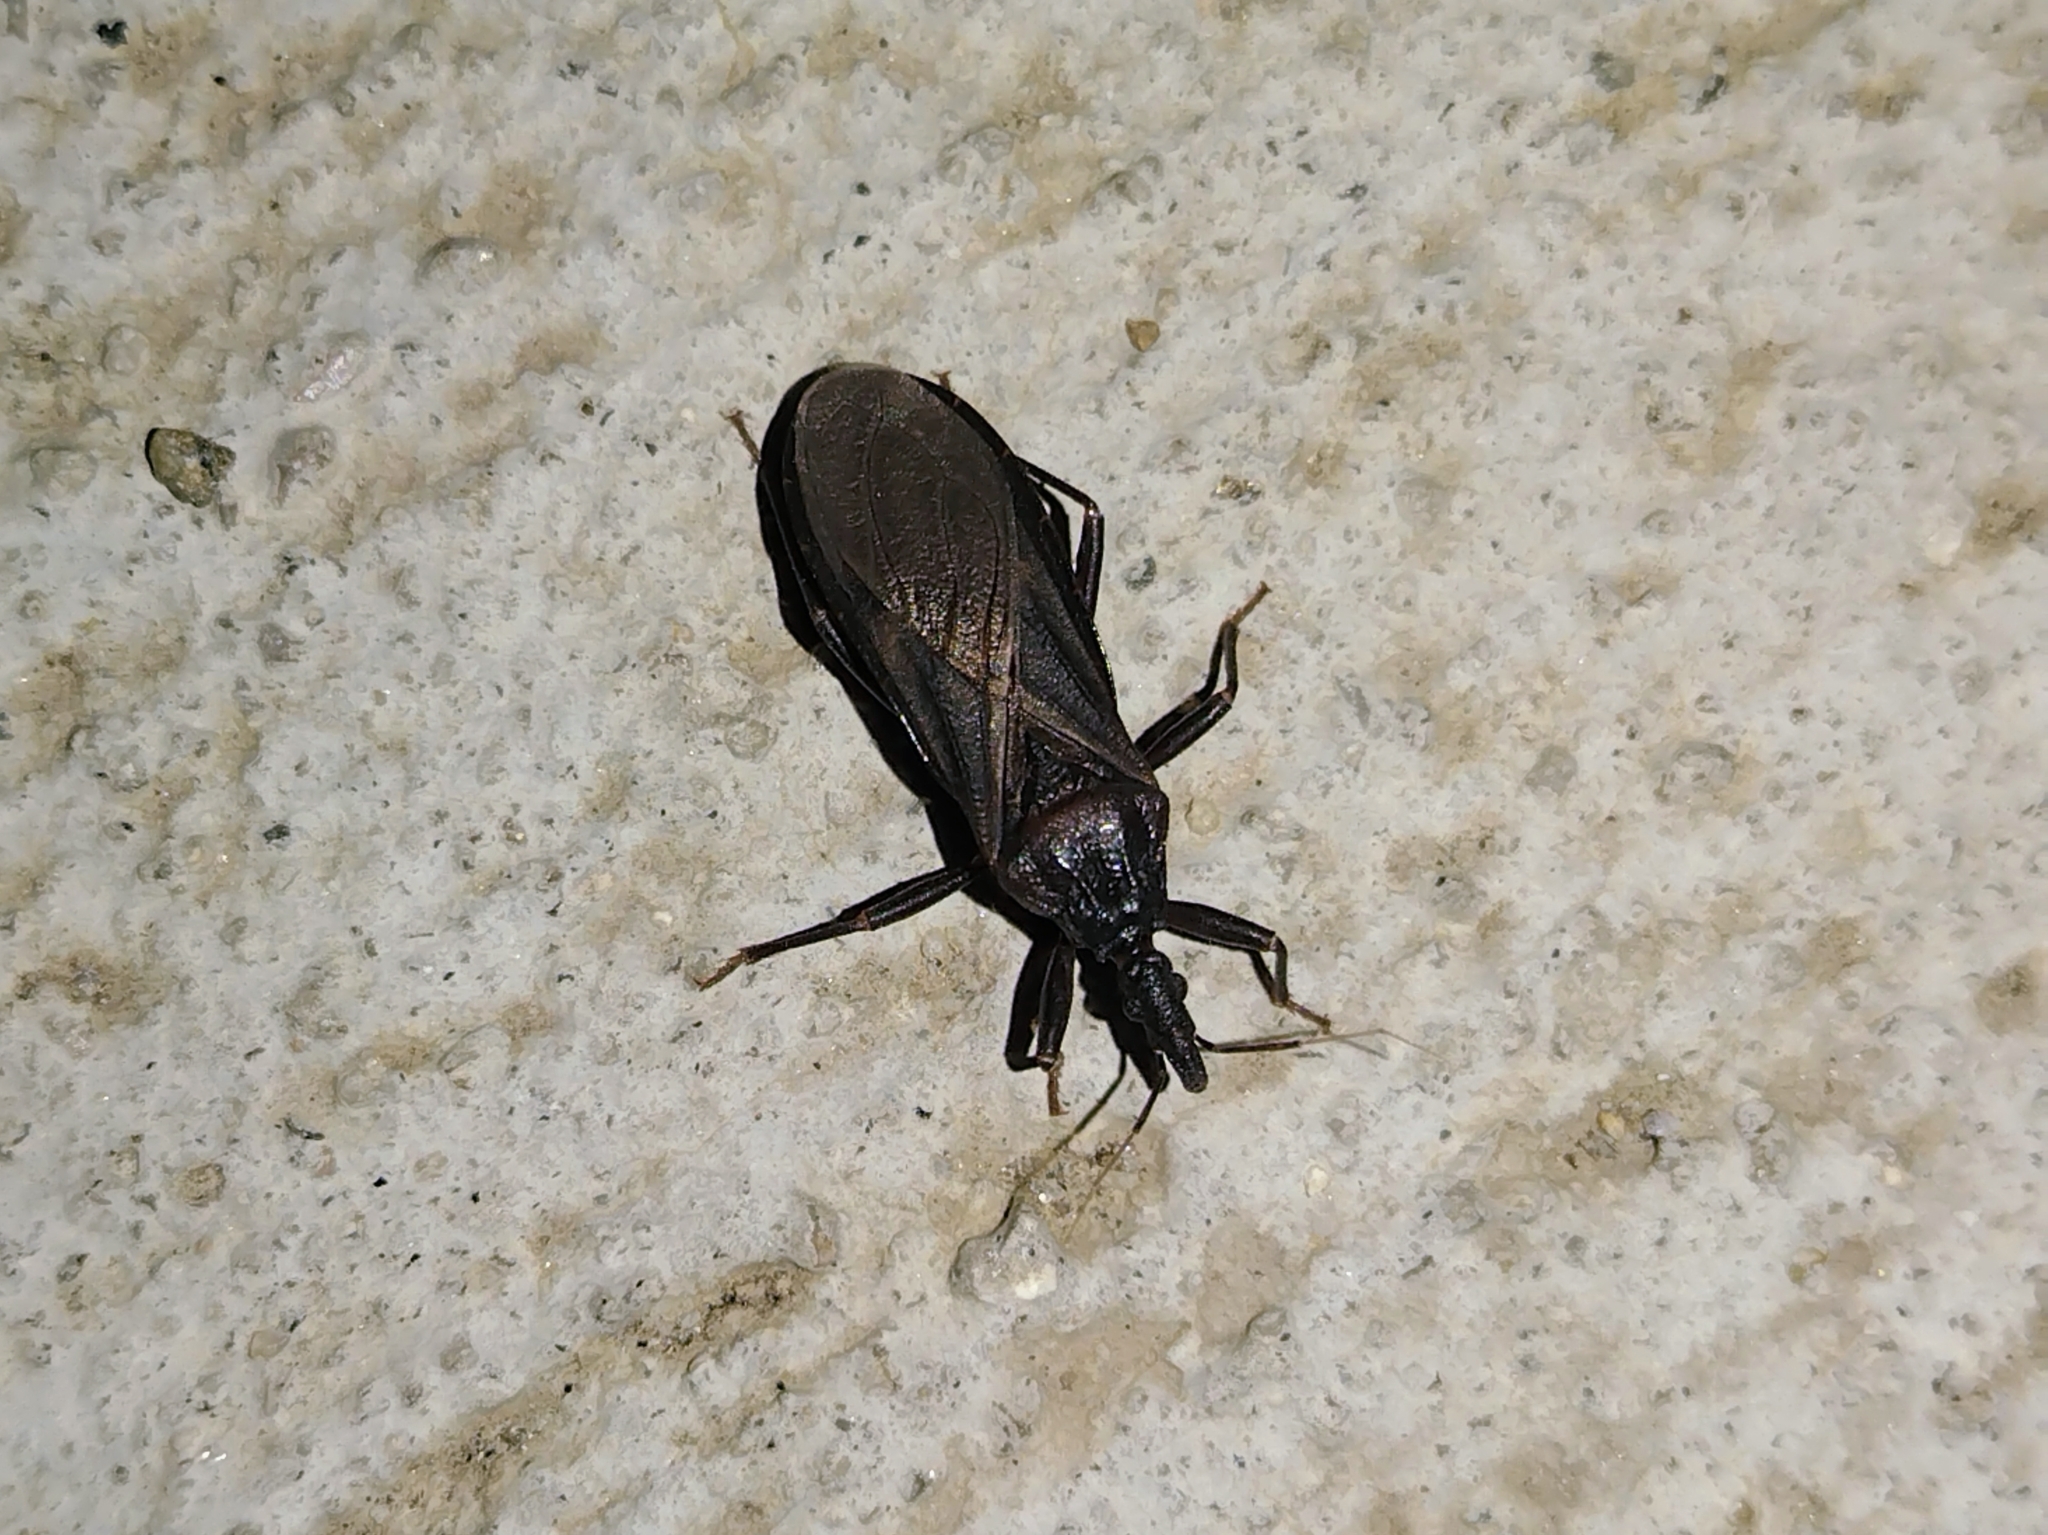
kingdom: Animalia
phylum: Arthropoda
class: Insecta
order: Hemiptera
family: Reduviidae
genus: Triatoma
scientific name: Triatoma protracta
